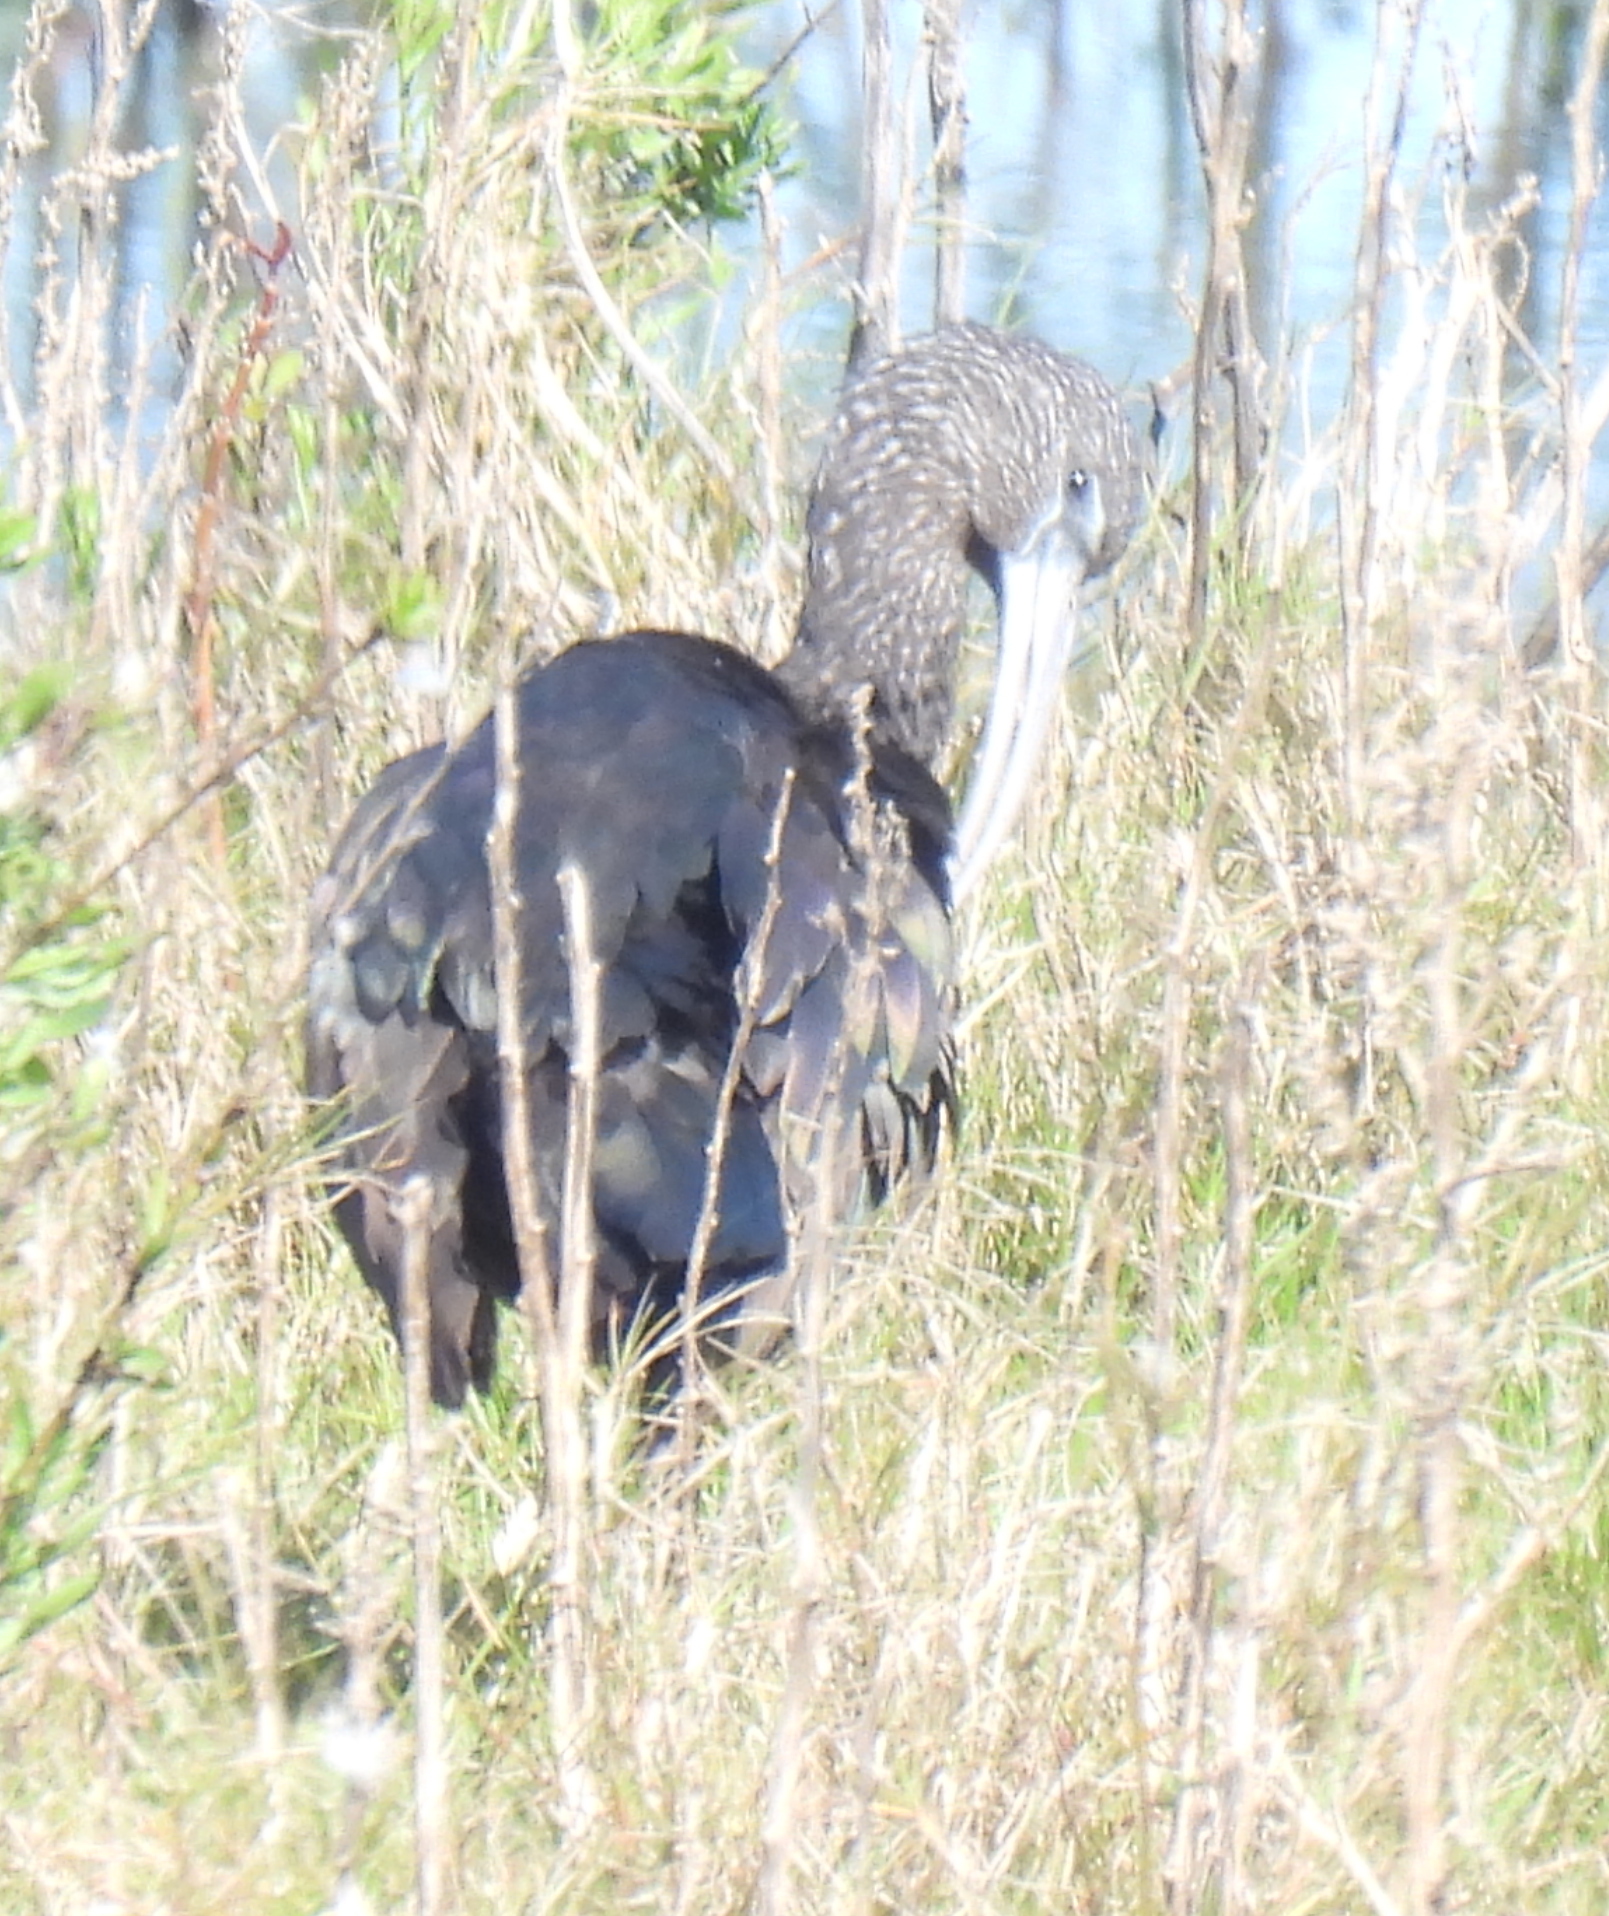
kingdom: Animalia
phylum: Chordata
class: Aves
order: Pelecaniformes
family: Threskiornithidae
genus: Plegadis
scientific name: Plegadis falcinellus
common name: Glossy ibis
